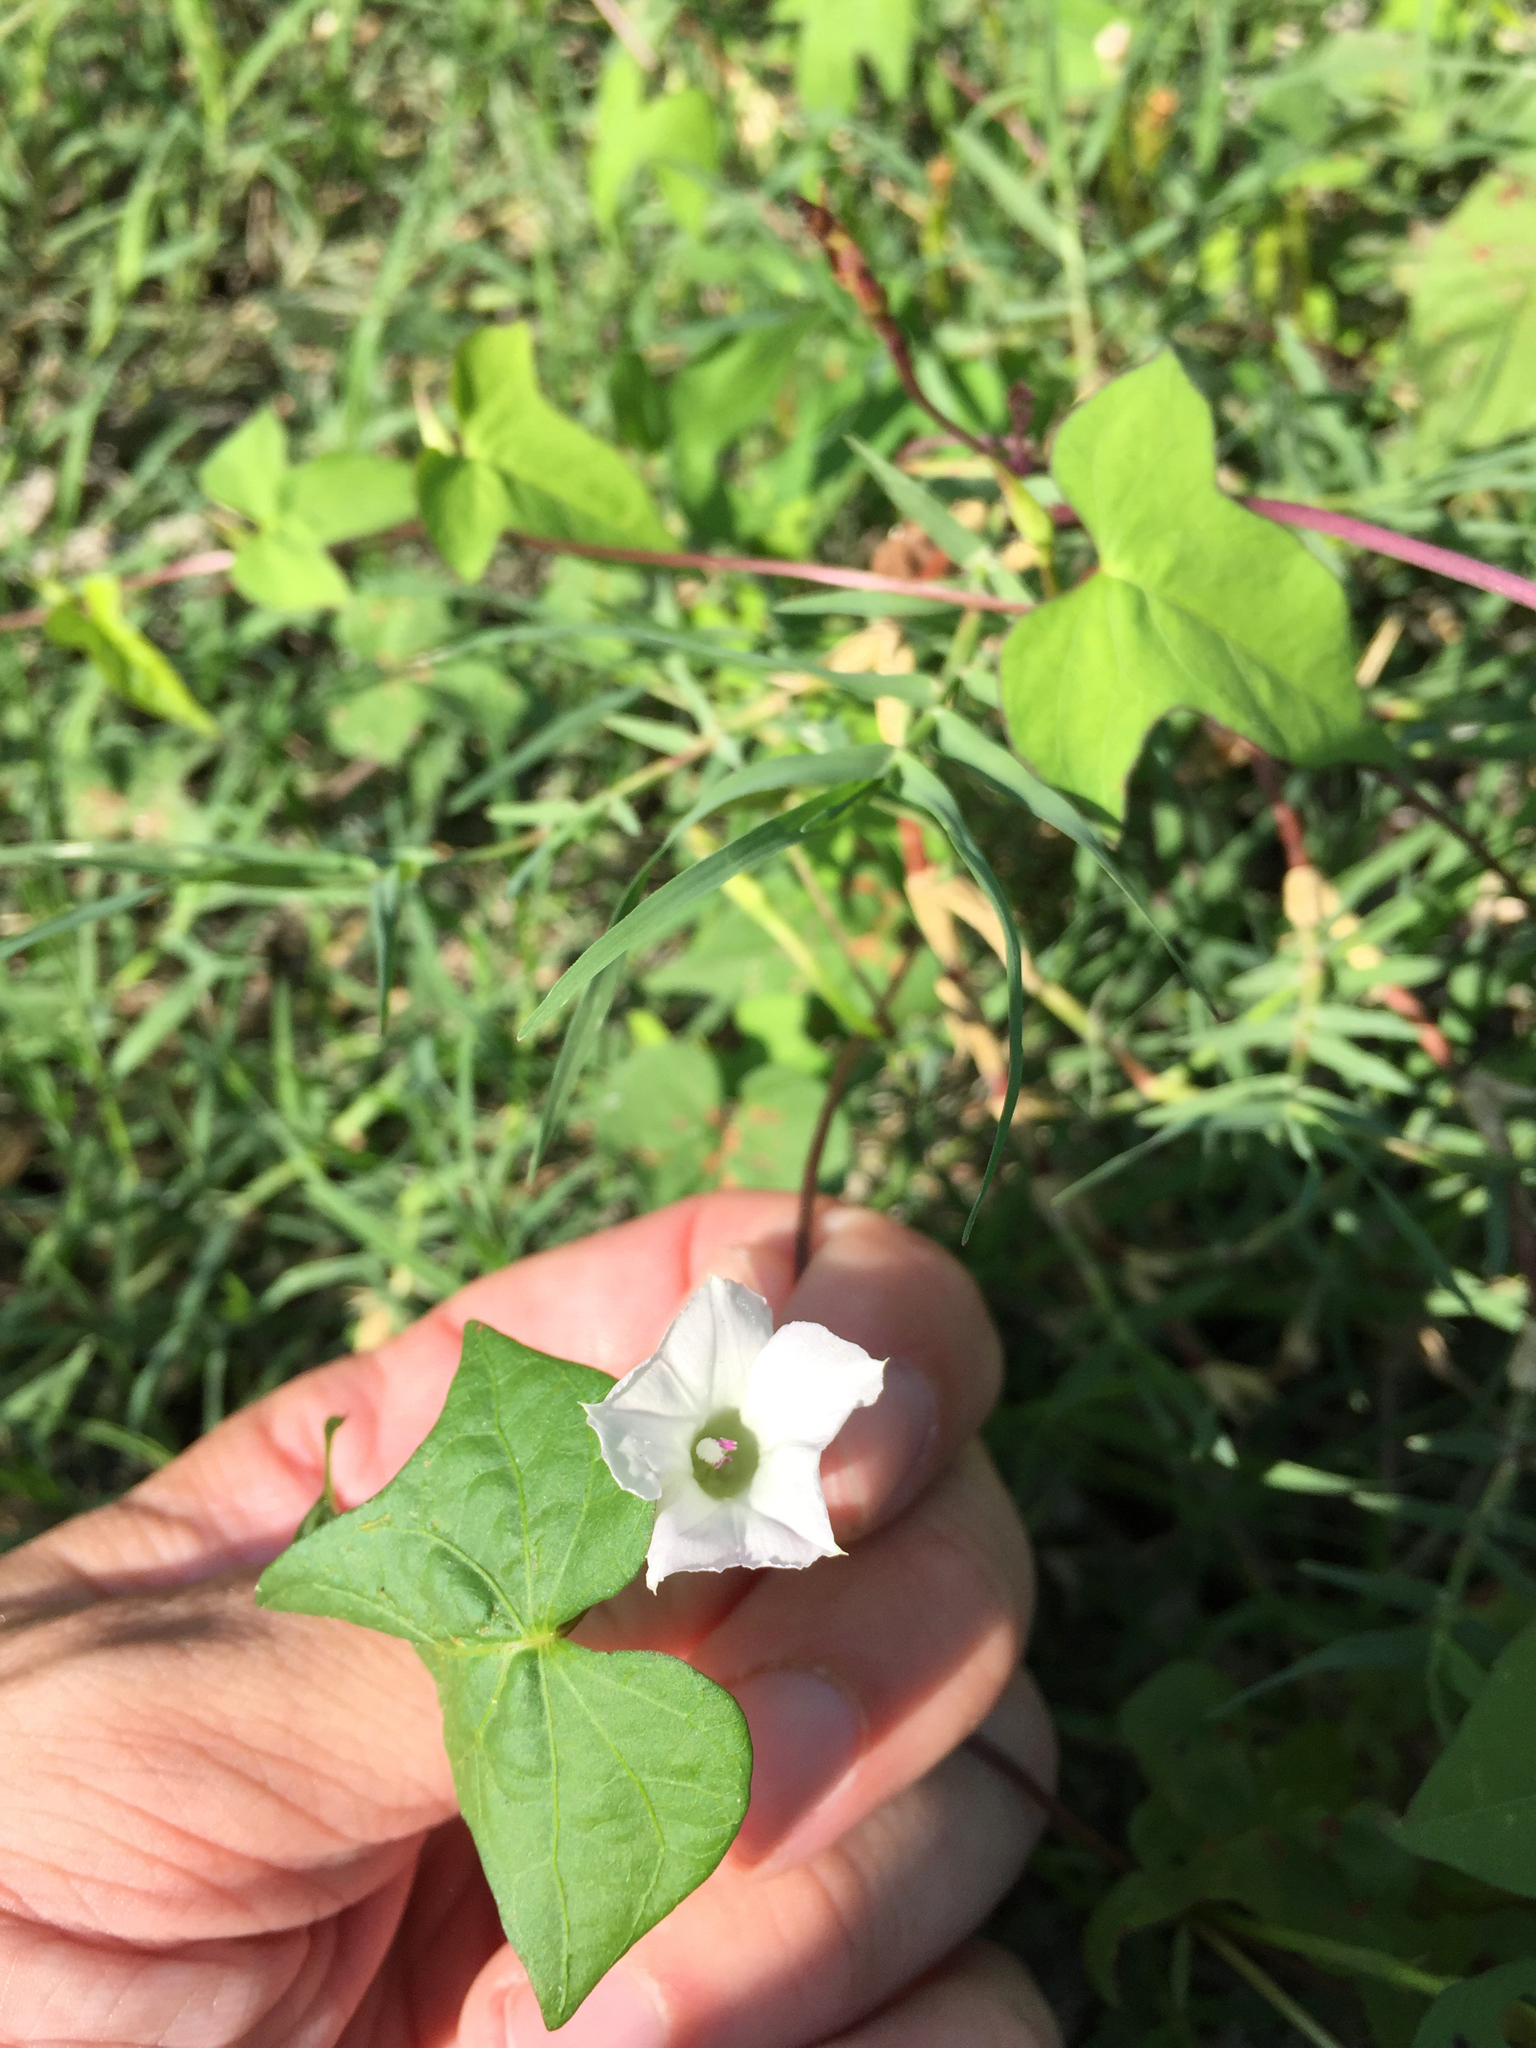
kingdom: Plantae
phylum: Tracheophyta
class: Magnoliopsida
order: Solanales
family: Convolvulaceae
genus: Ipomoea
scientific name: Ipomoea lacunosa
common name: White morning-glory
